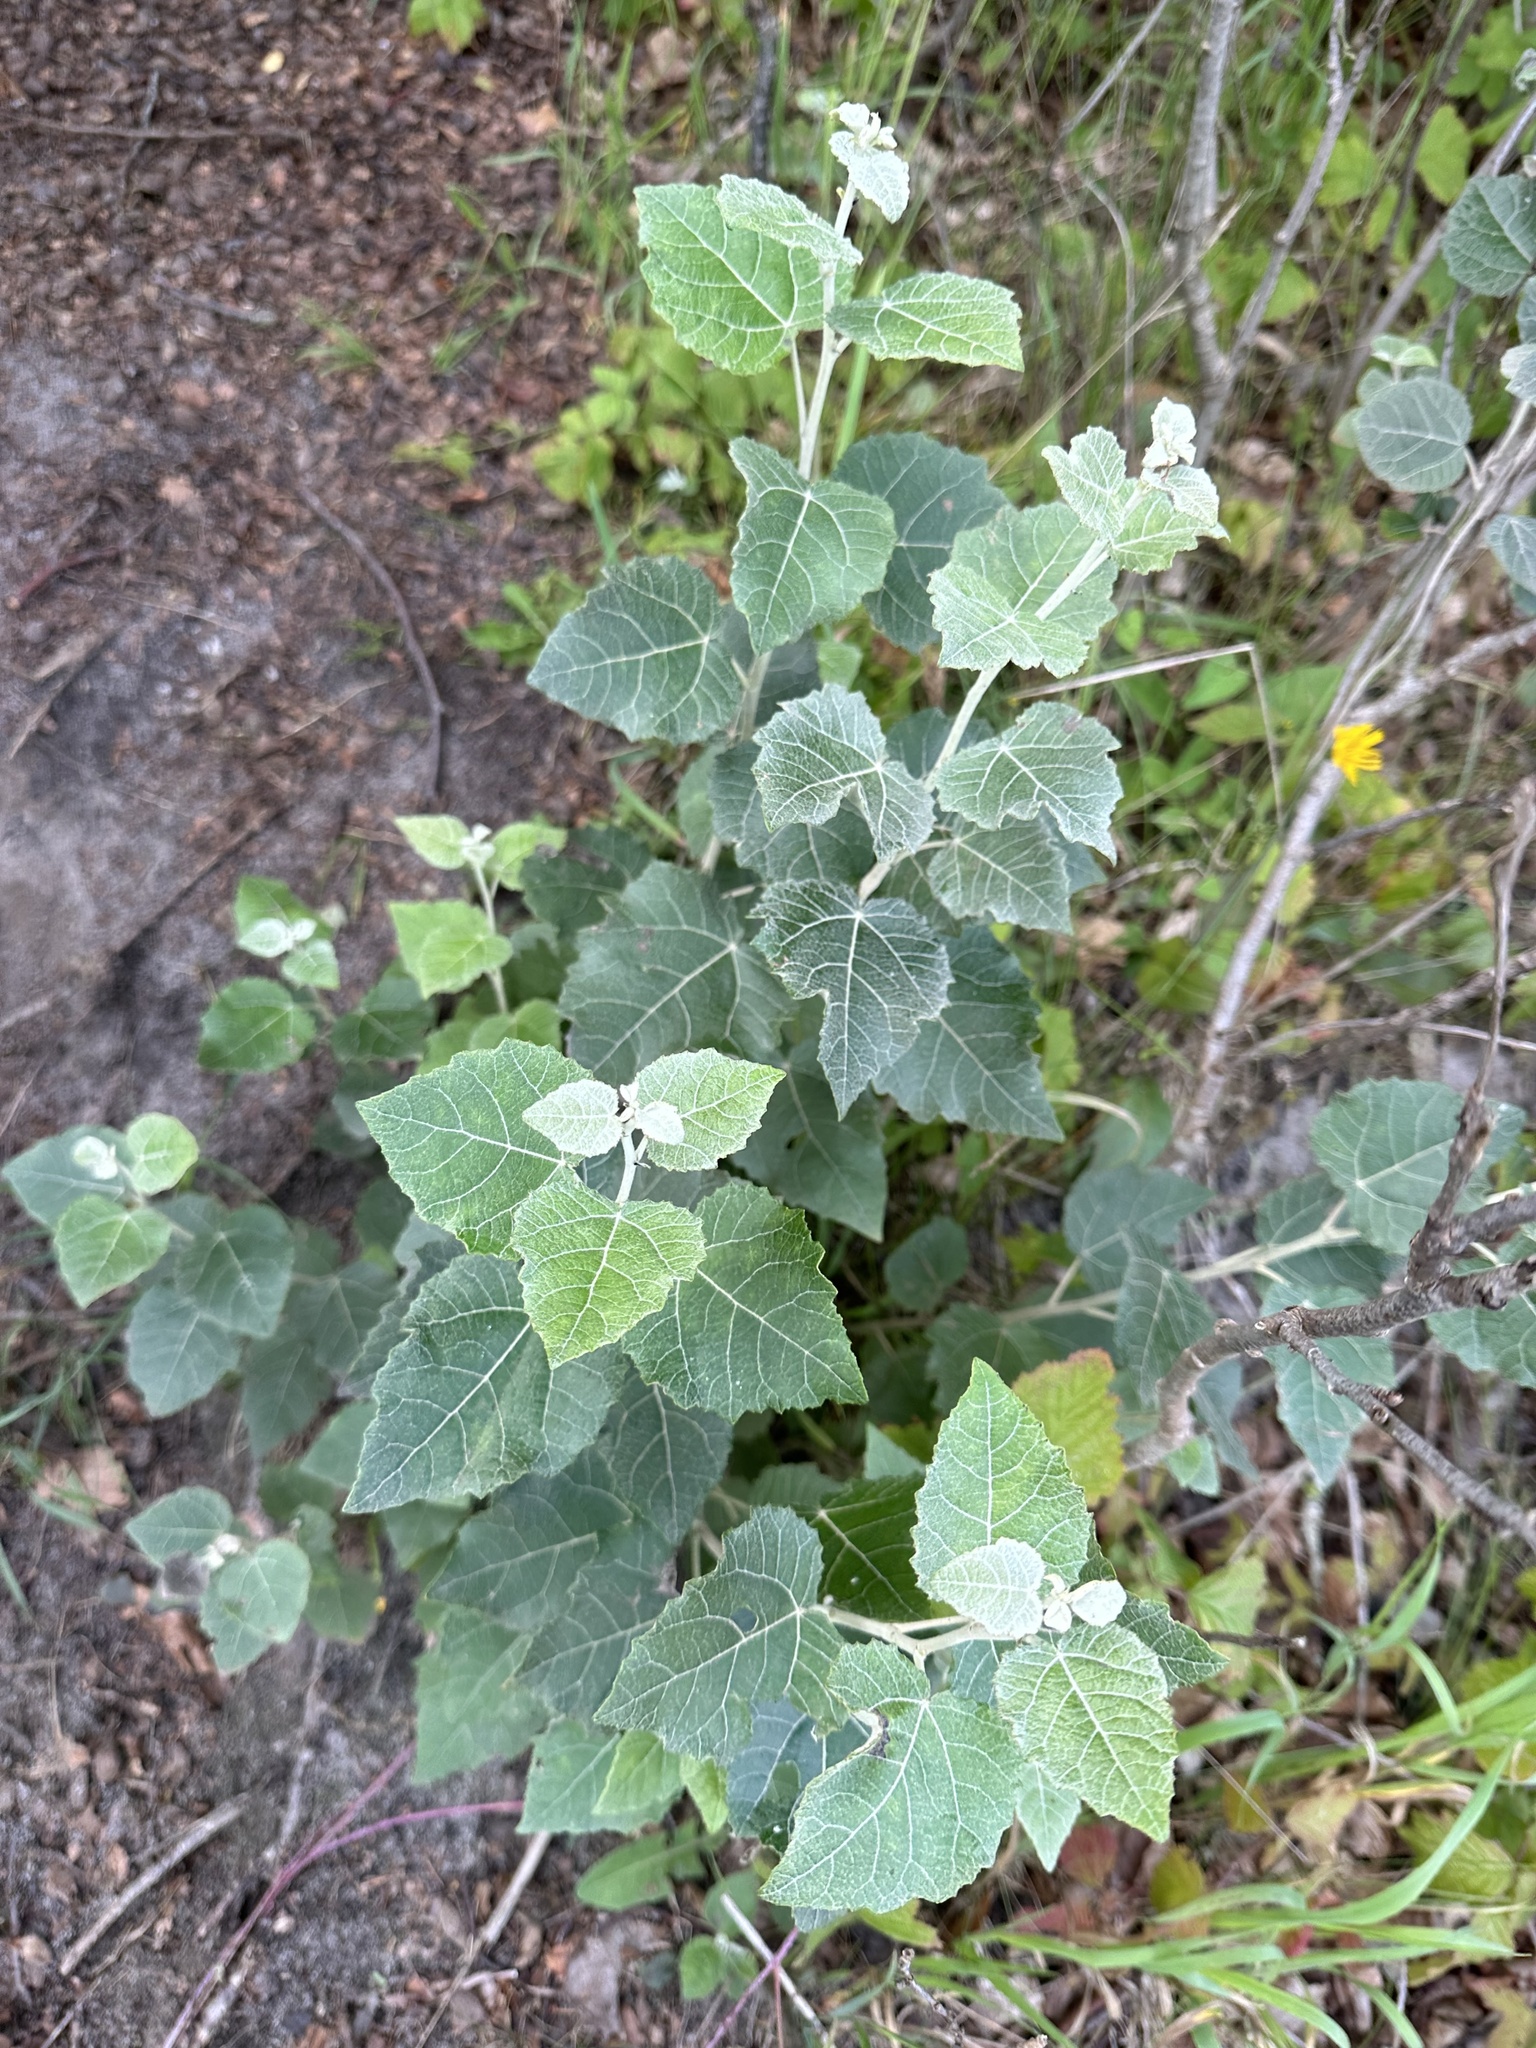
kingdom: Plantae
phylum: Tracheophyta
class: Magnoliopsida
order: Malpighiales
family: Salicaceae
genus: Populus
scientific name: Populus alba
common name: White poplar
